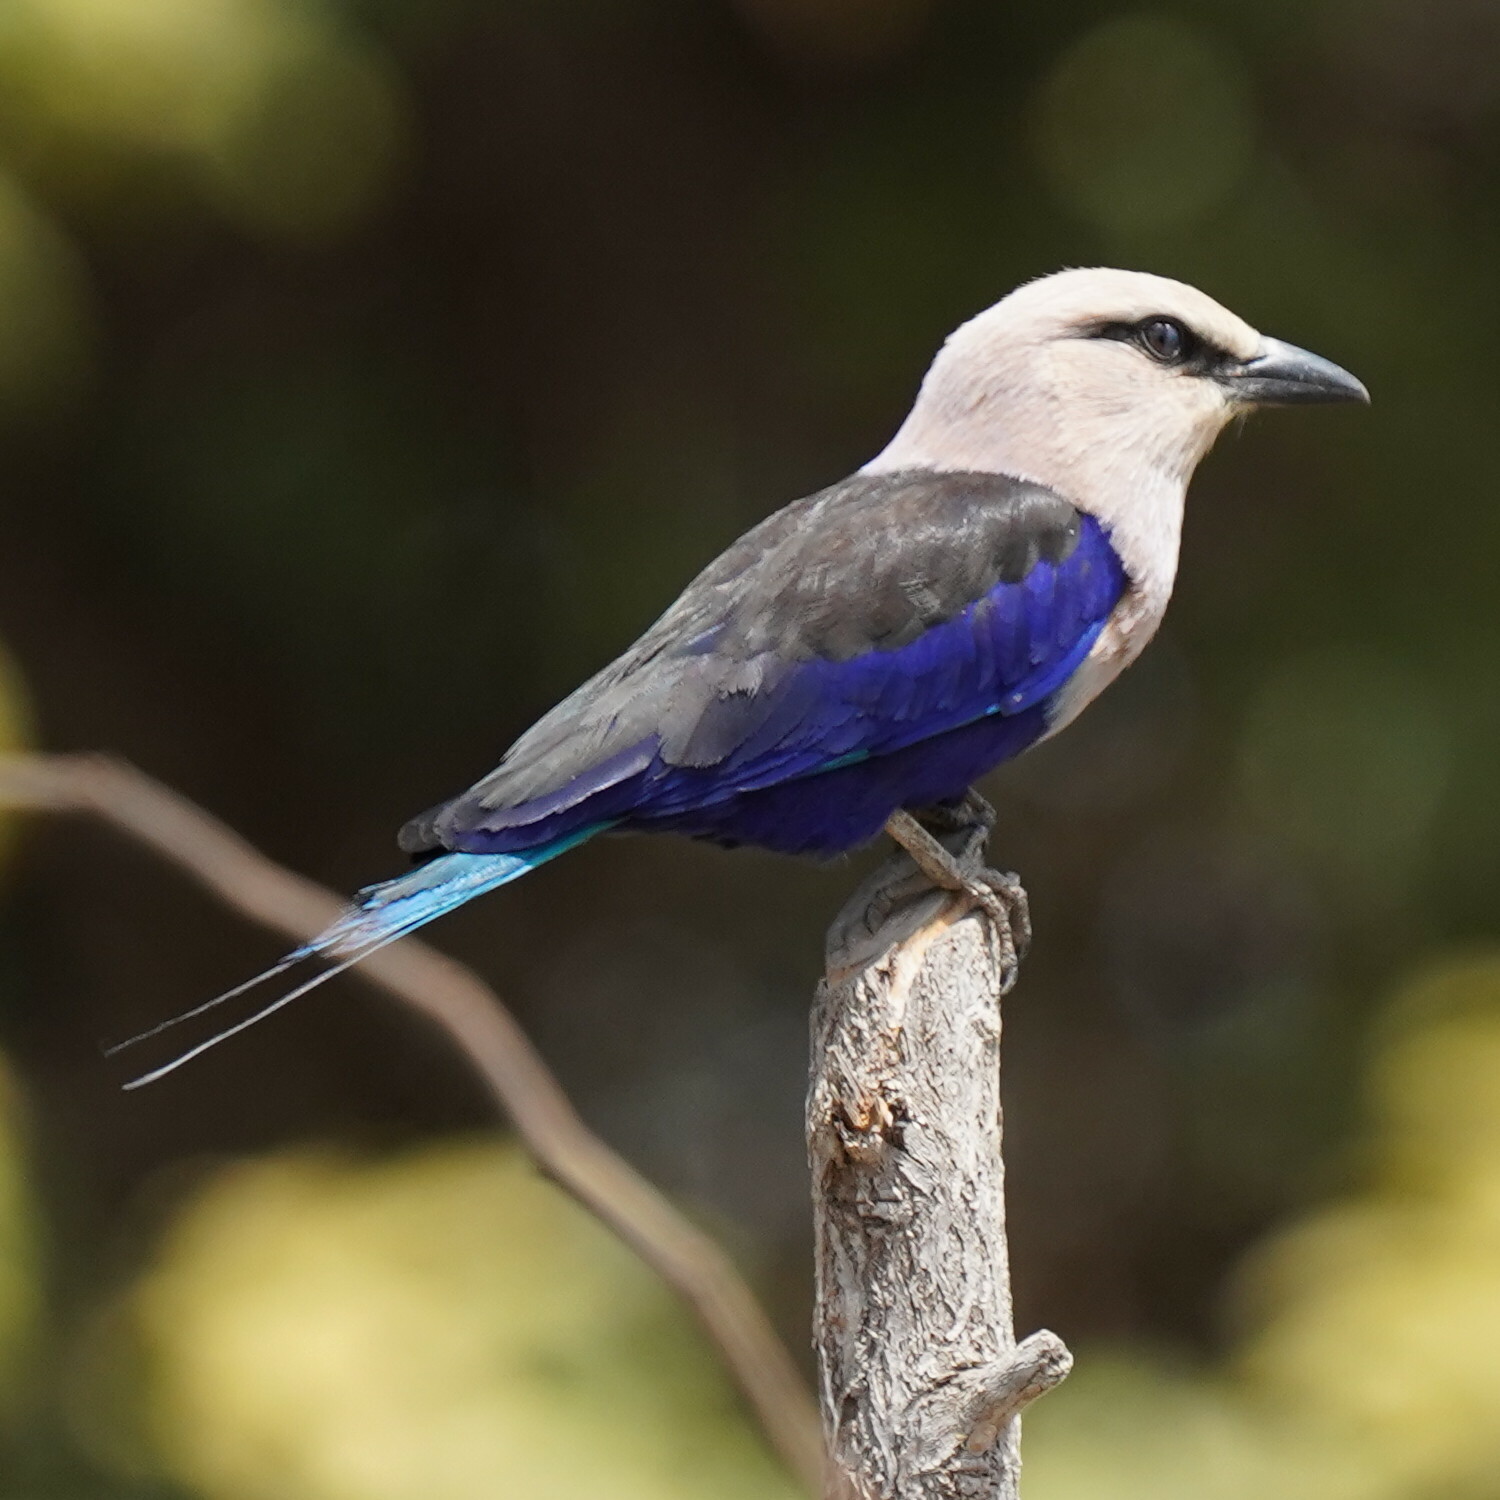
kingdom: Animalia
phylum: Chordata
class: Aves
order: Coraciiformes
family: Coraciidae
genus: Coracias
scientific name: Coracias cyanogaster
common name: Blue-bellied roller
